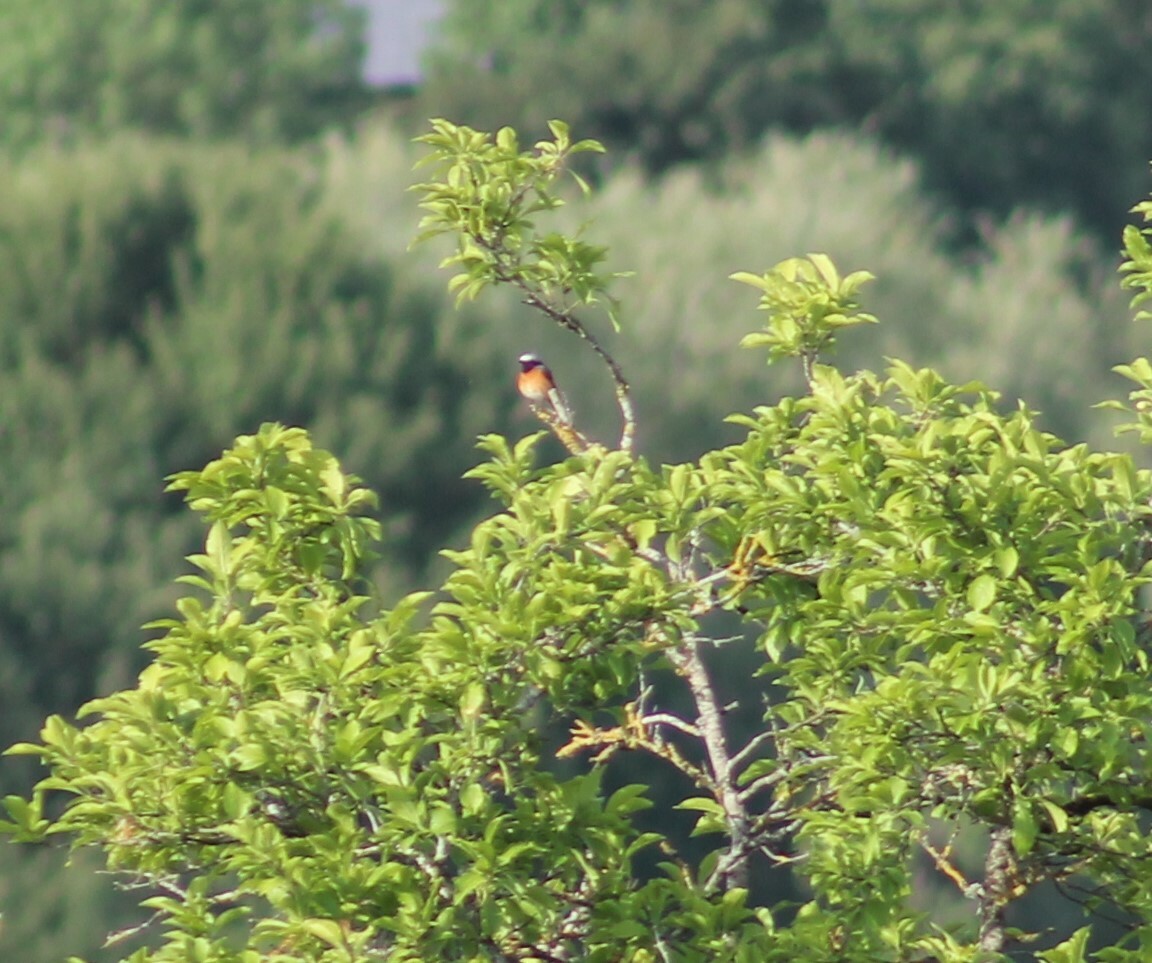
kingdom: Animalia
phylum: Chordata
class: Aves
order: Passeriformes
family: Muscicapidae
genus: Phoenicurus
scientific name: Phoenicurus phoenicurus
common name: Common redstart
